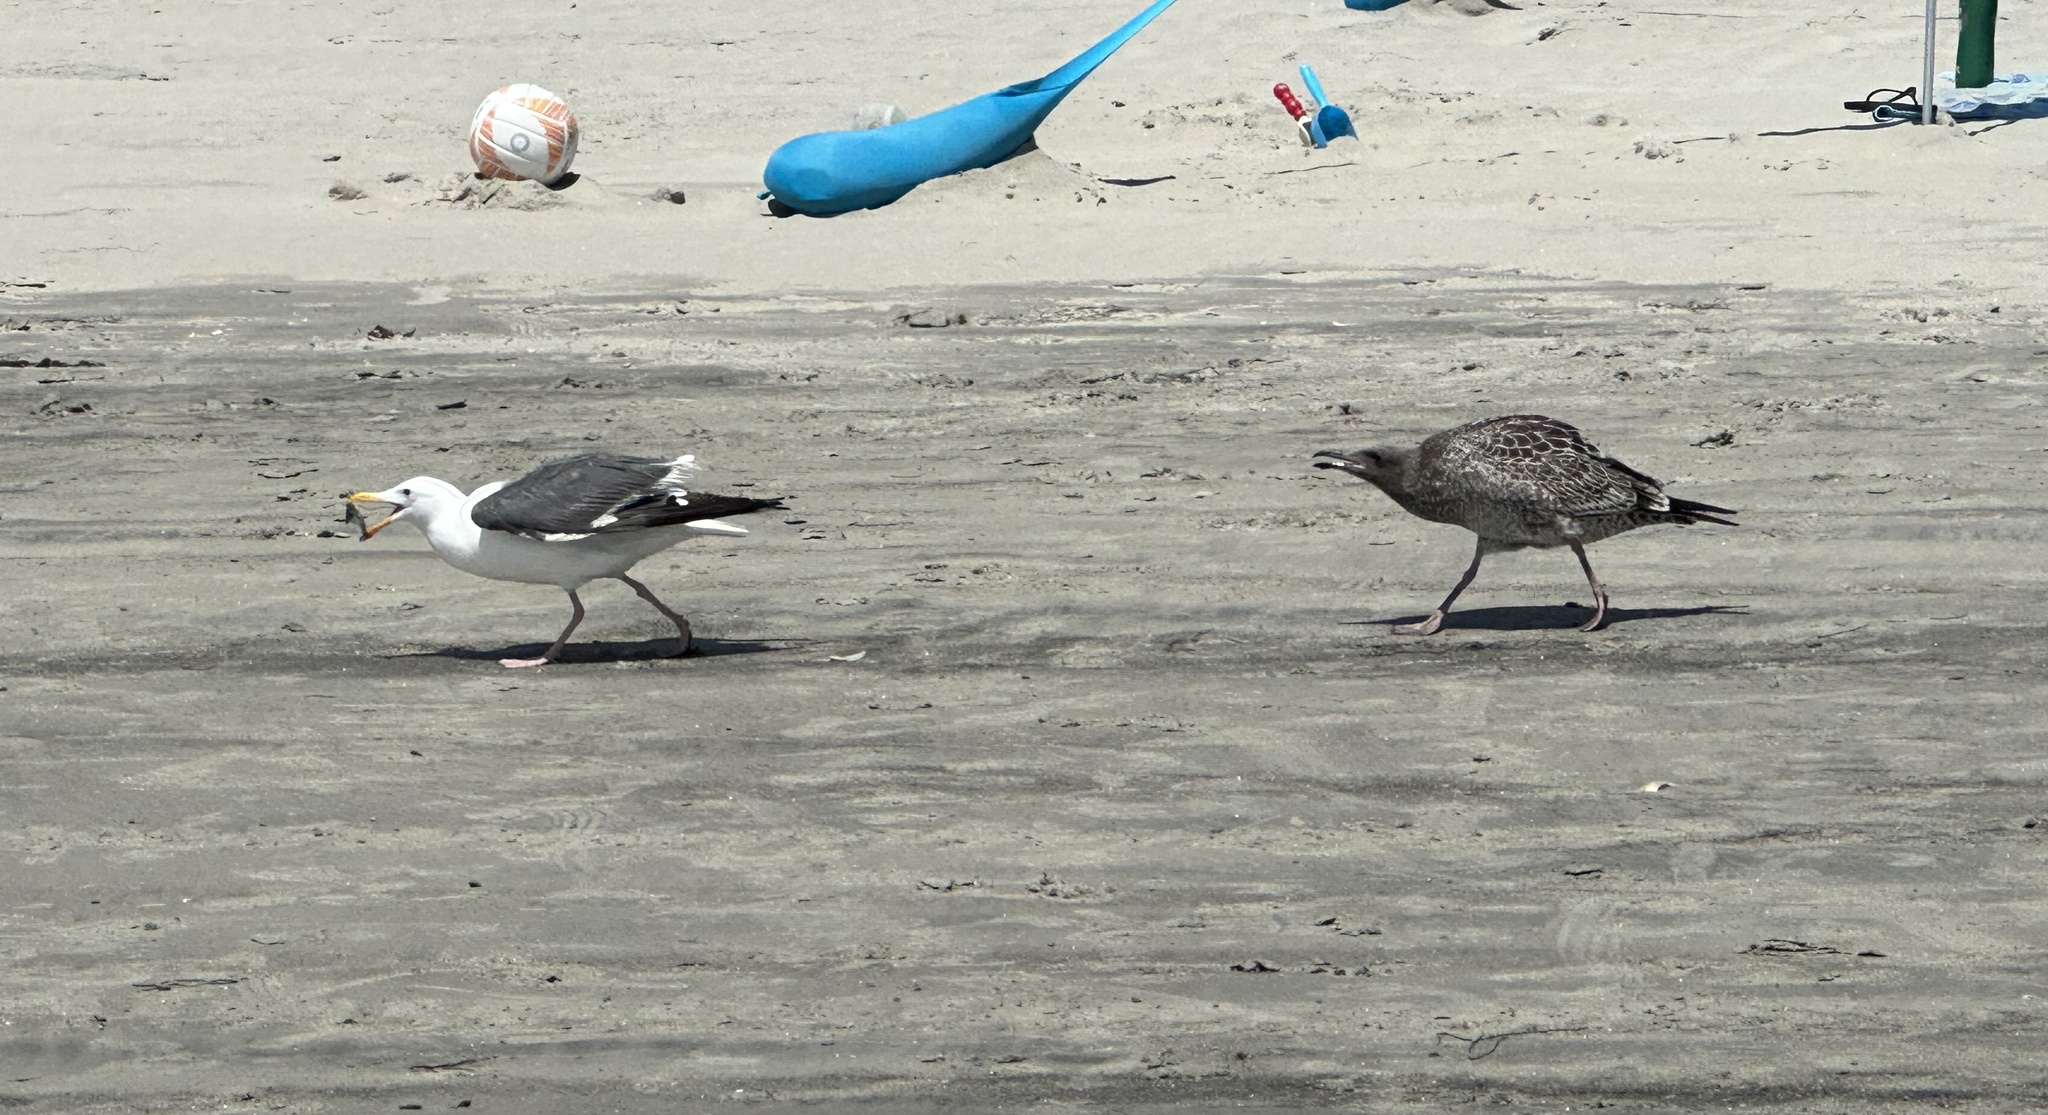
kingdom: Animalia
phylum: Chordata
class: Aves
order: Charadriiformes
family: Laridae
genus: Larus
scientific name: Larus occidentalis
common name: Western gull
